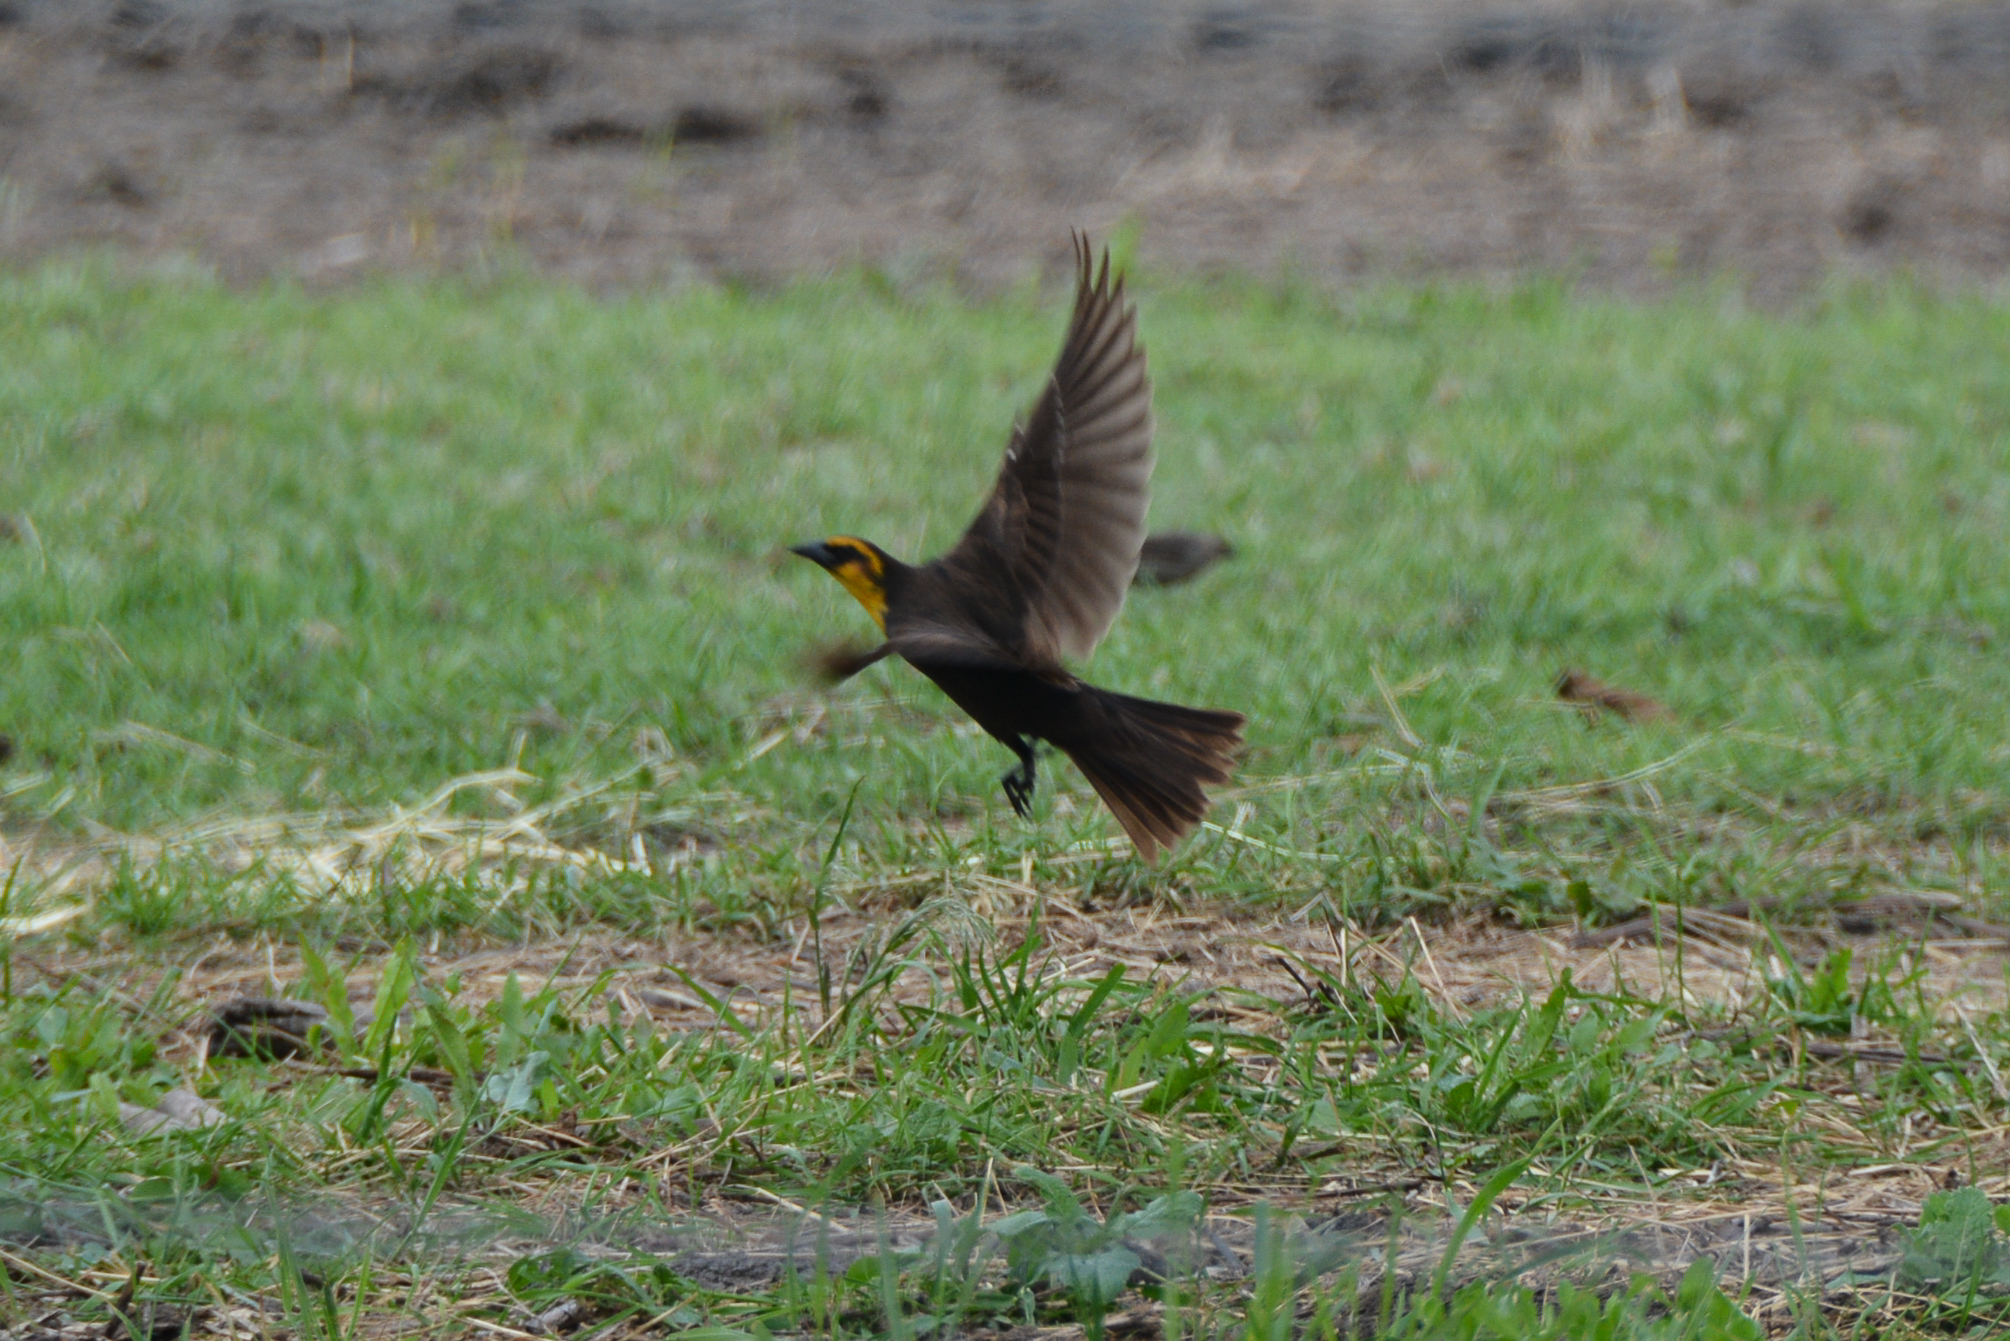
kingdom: Animalia
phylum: Chordata
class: Aves
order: Passeriformes
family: Icteridae
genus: Xanthocephalus
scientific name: Xanthocephalus xanthocephalus
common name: Yellow-headed blackbird
